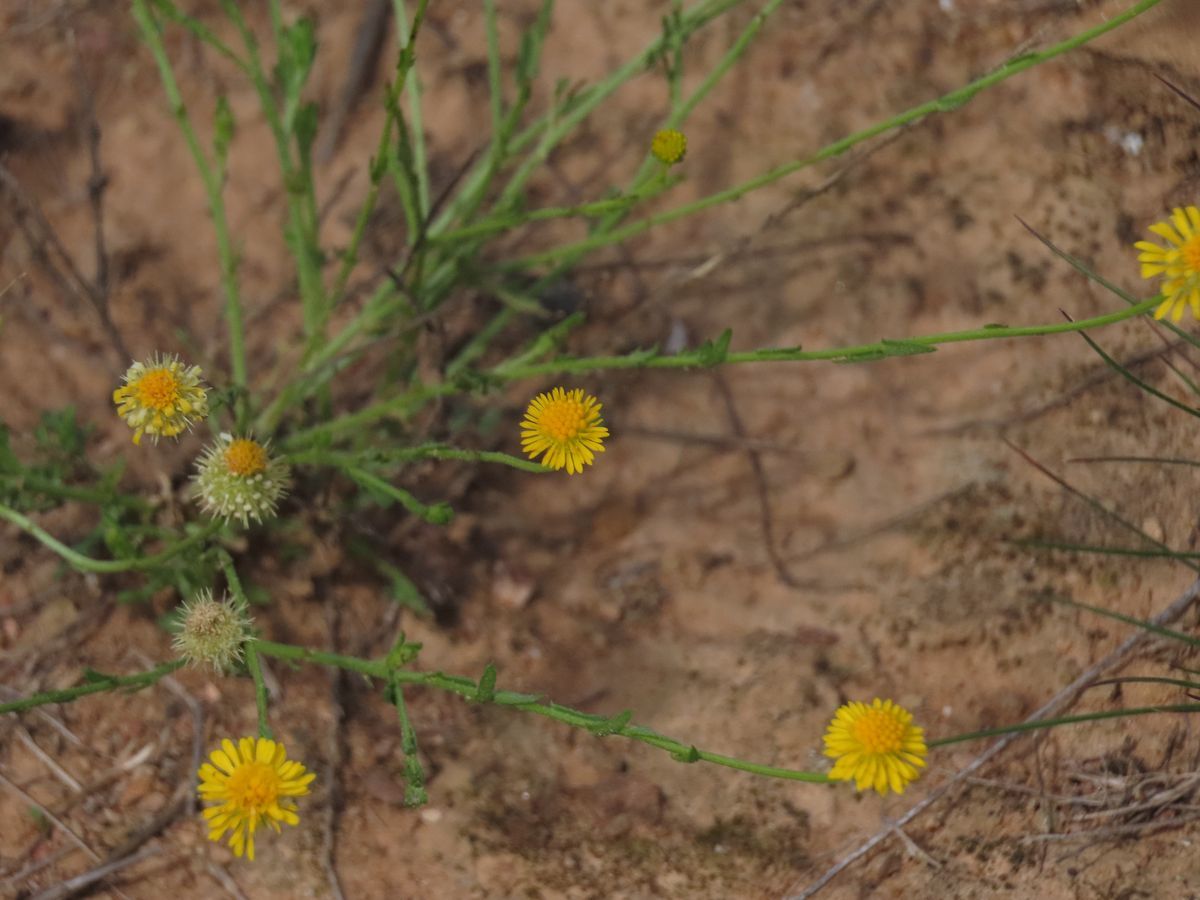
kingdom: Plantae
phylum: Tracheophyta
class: Magnoliopsida
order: Asterales
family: Asteraceae
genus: Calotis
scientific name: Calotis lappulacea
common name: Bur daisy
